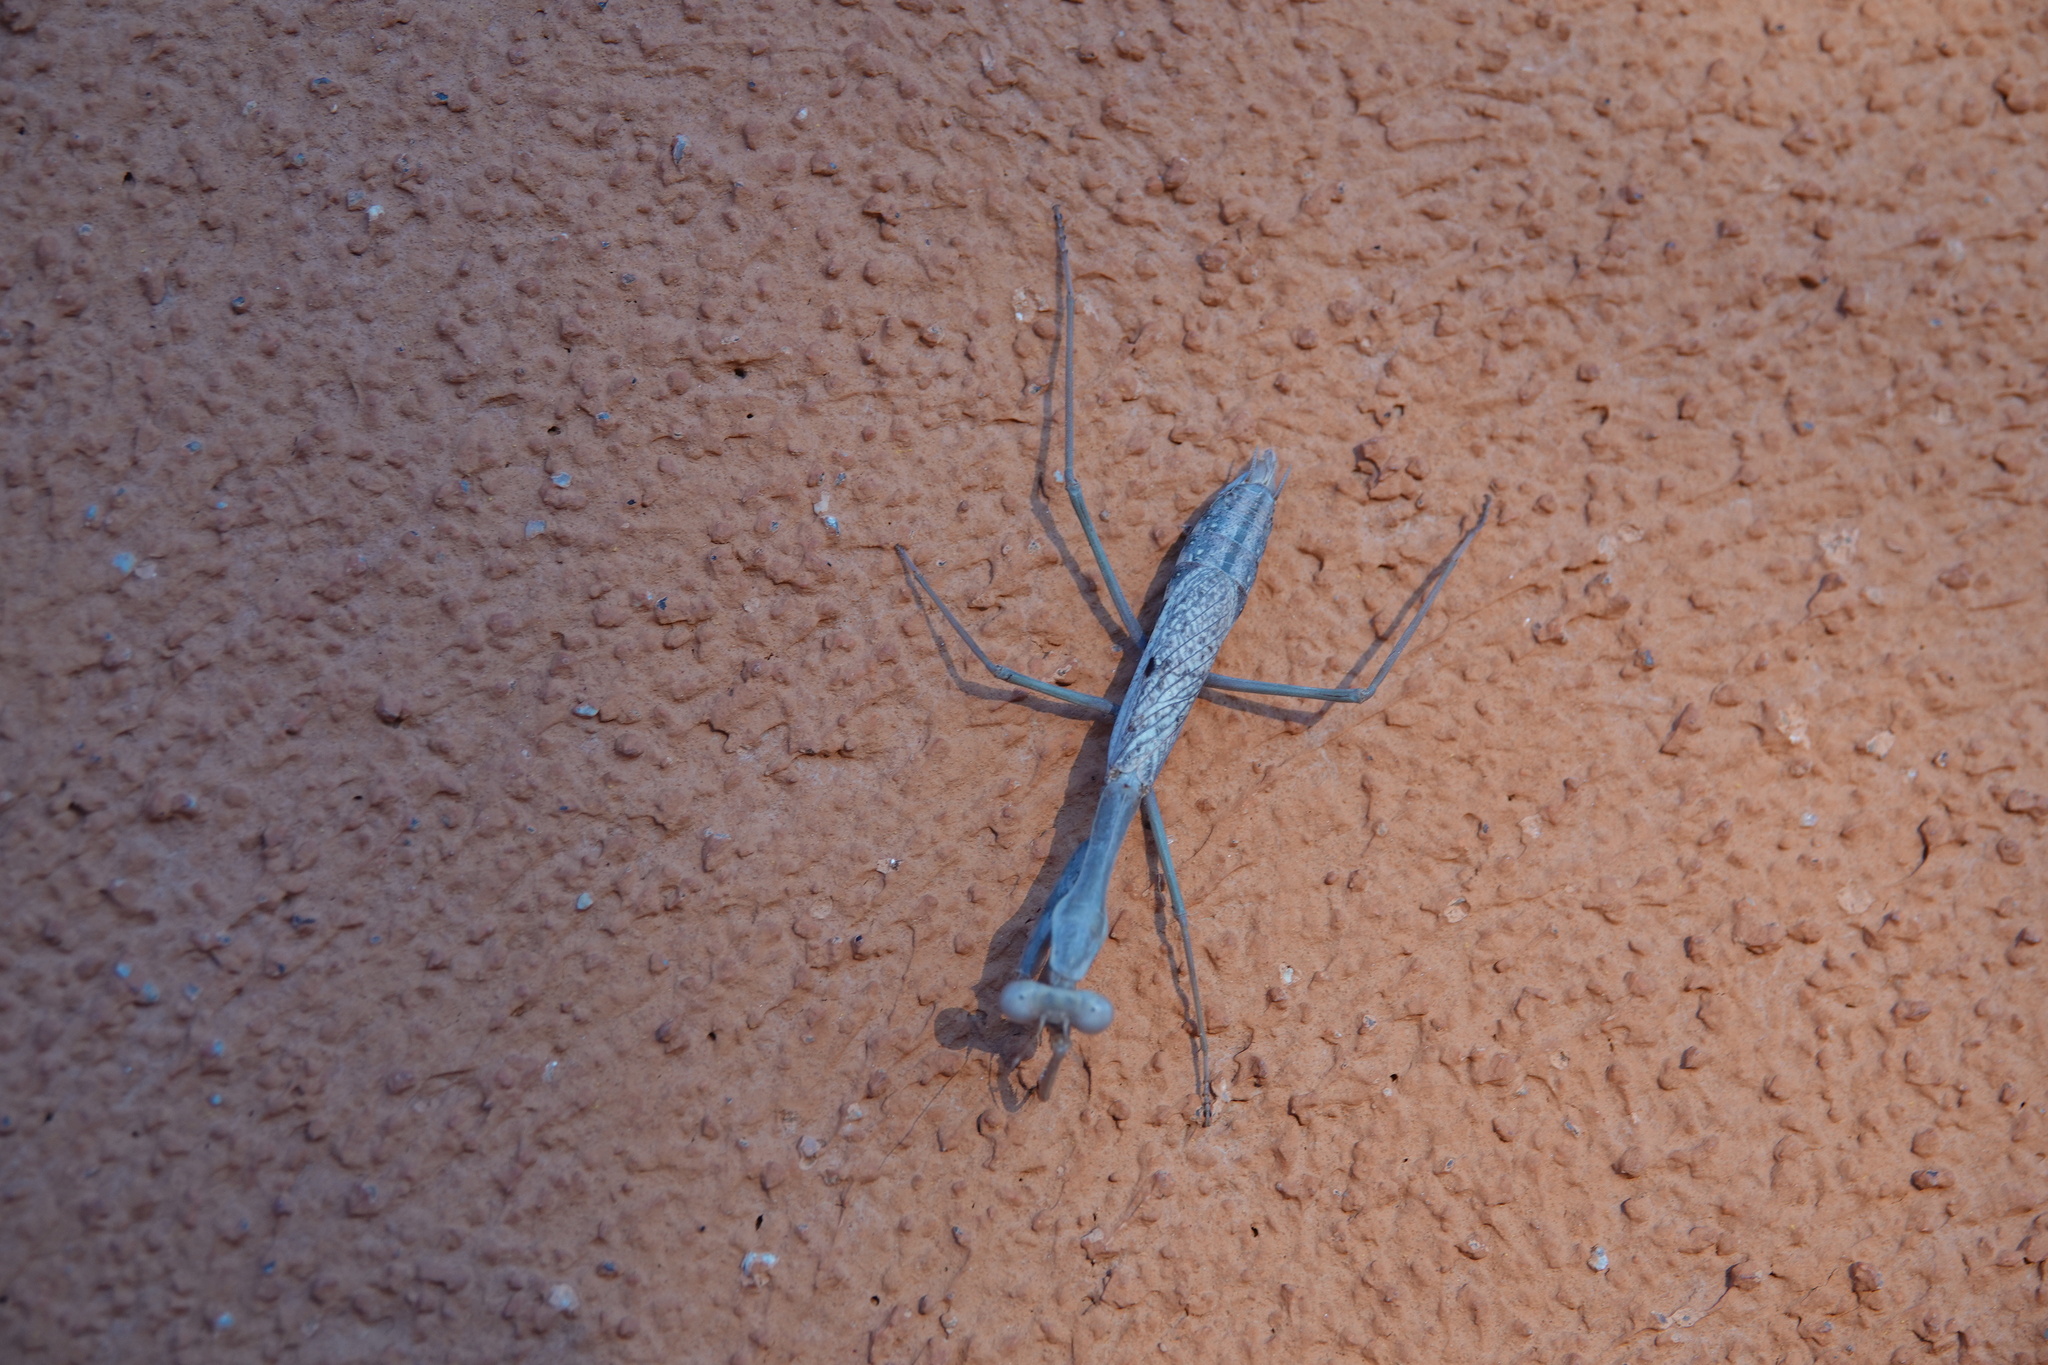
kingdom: Animalia
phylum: Arthropoda
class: Insecta
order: Mantodea
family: Mantidae
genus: Stagmomantis
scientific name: Stagmomantis californica
